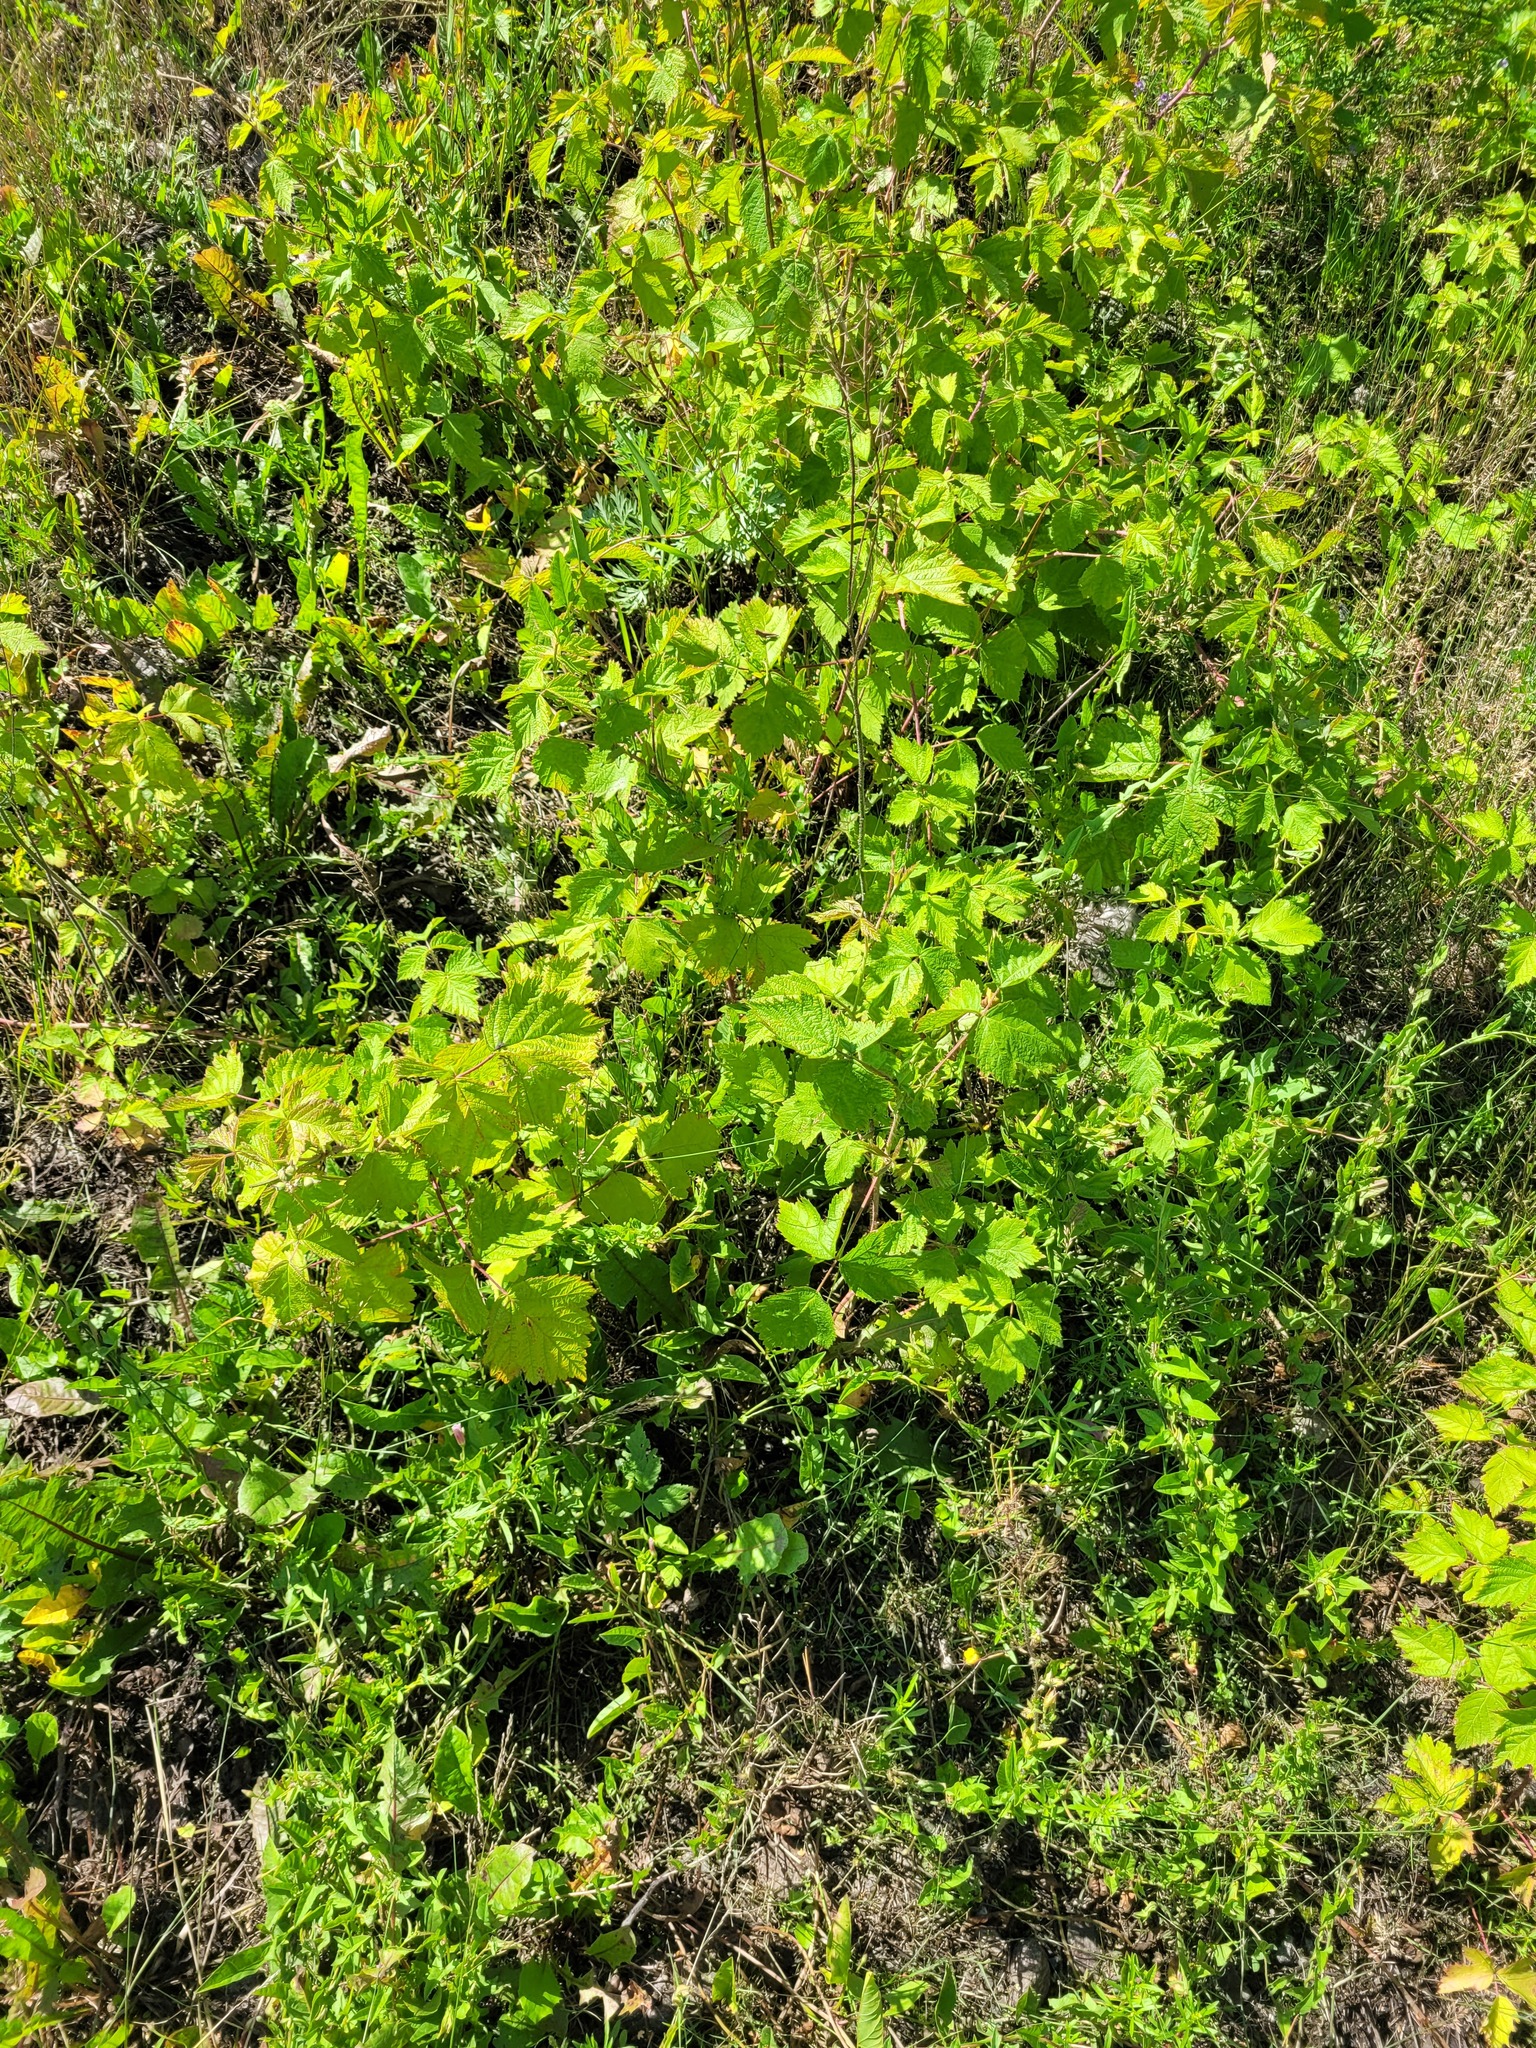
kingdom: Plantae
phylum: Tracheophyta
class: Magnoliopsida
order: Rosales
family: Rosaceae
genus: Rubus
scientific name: Rubus caesius
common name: Dewberry
